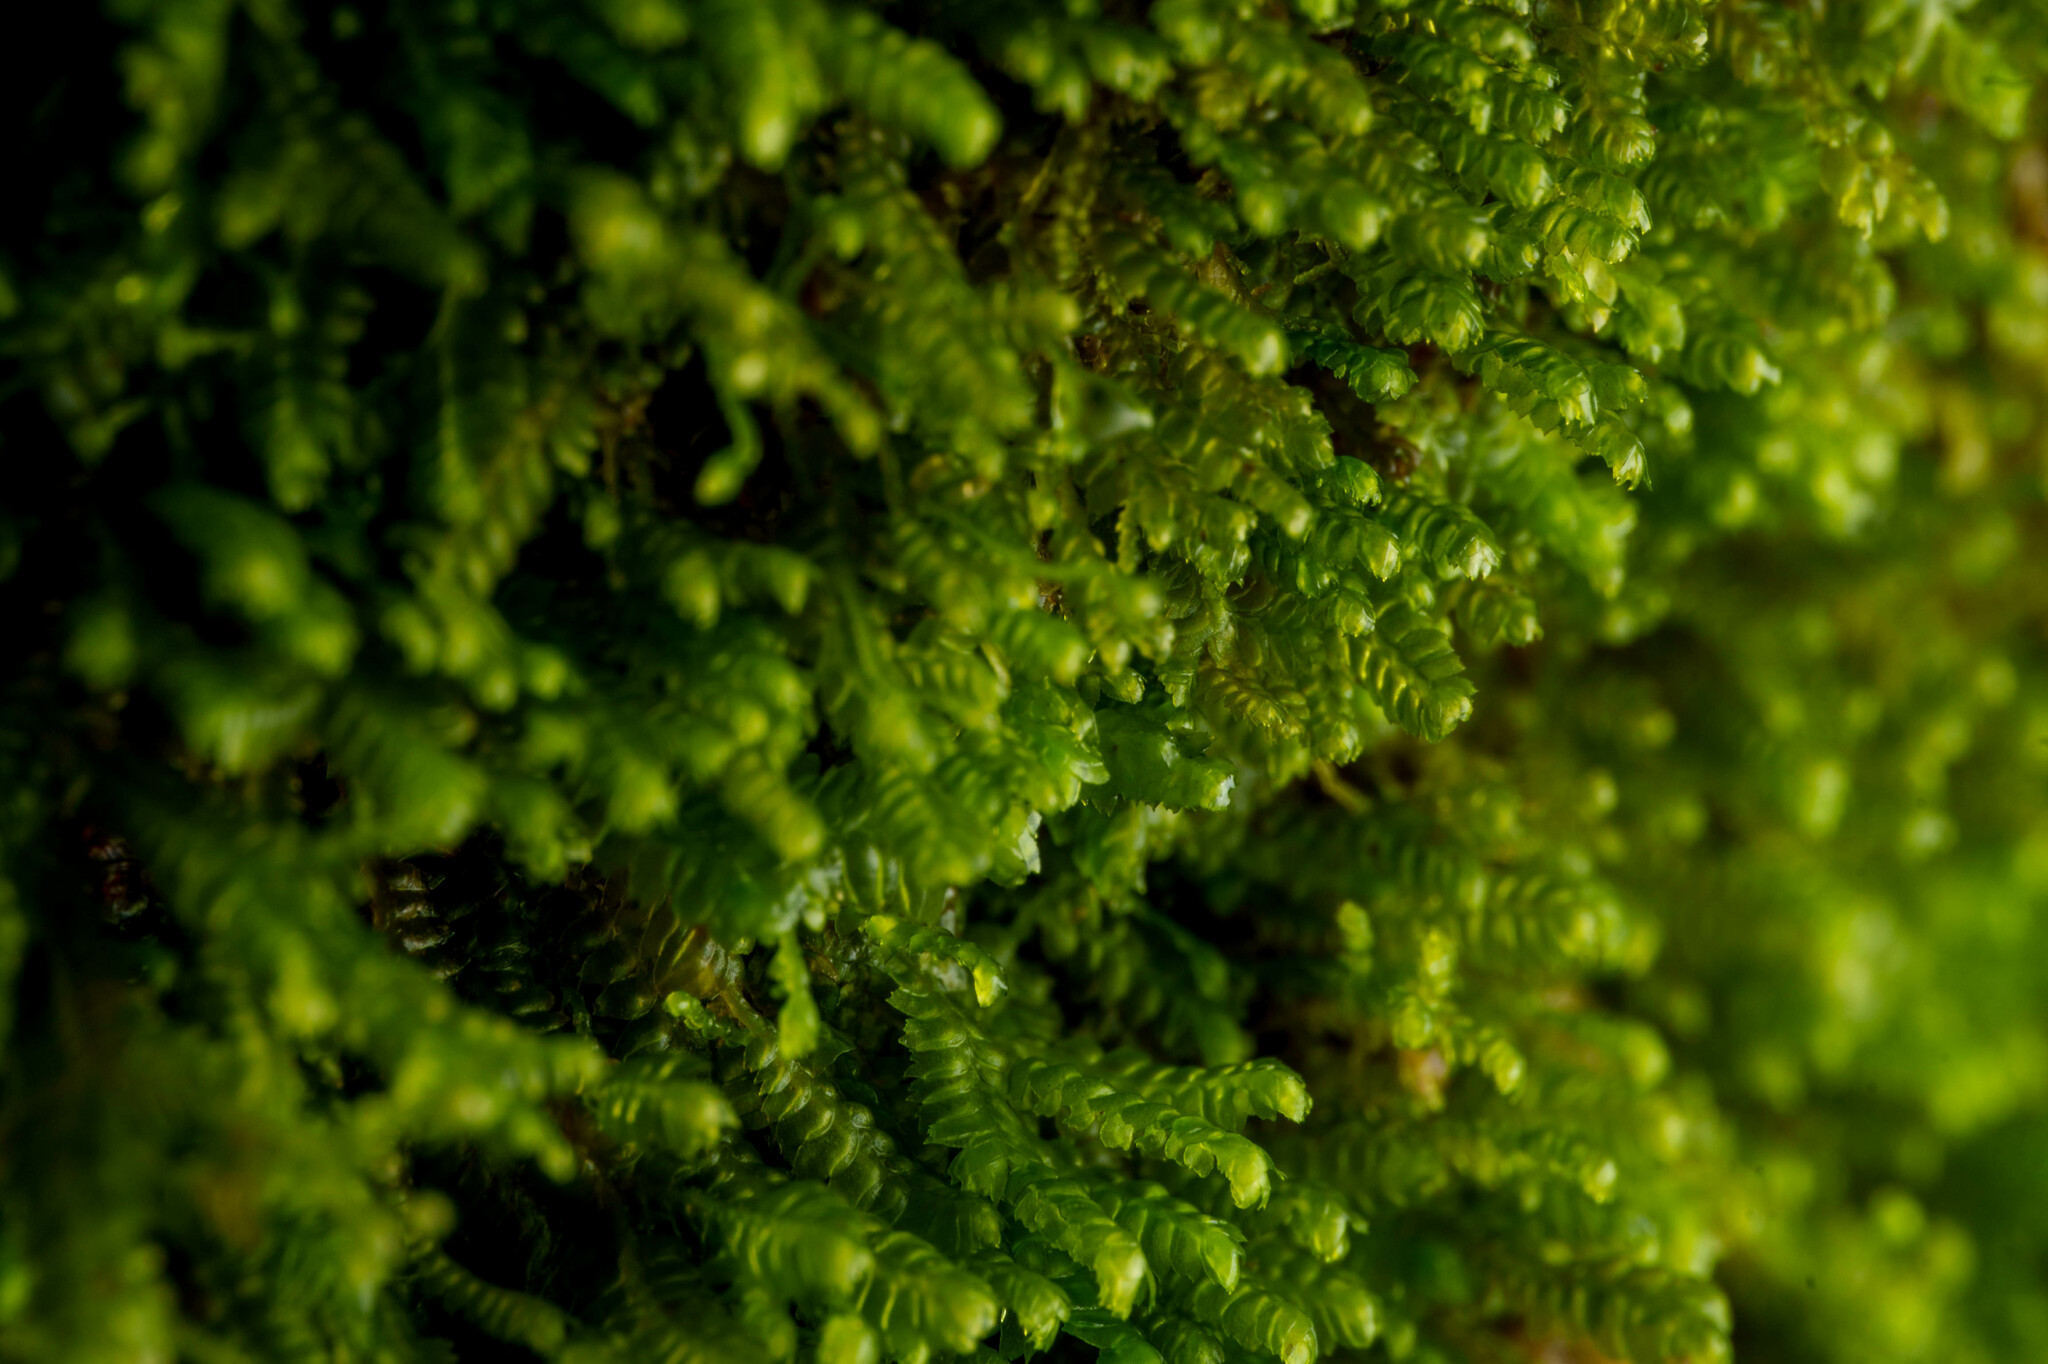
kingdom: Plantae
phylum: Marchantiophyta
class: Jungermanniopsida
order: Jungermanniales
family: Lepidoziaceae
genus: Bazzania
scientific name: Bazzania denudata
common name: Naked whipwort
